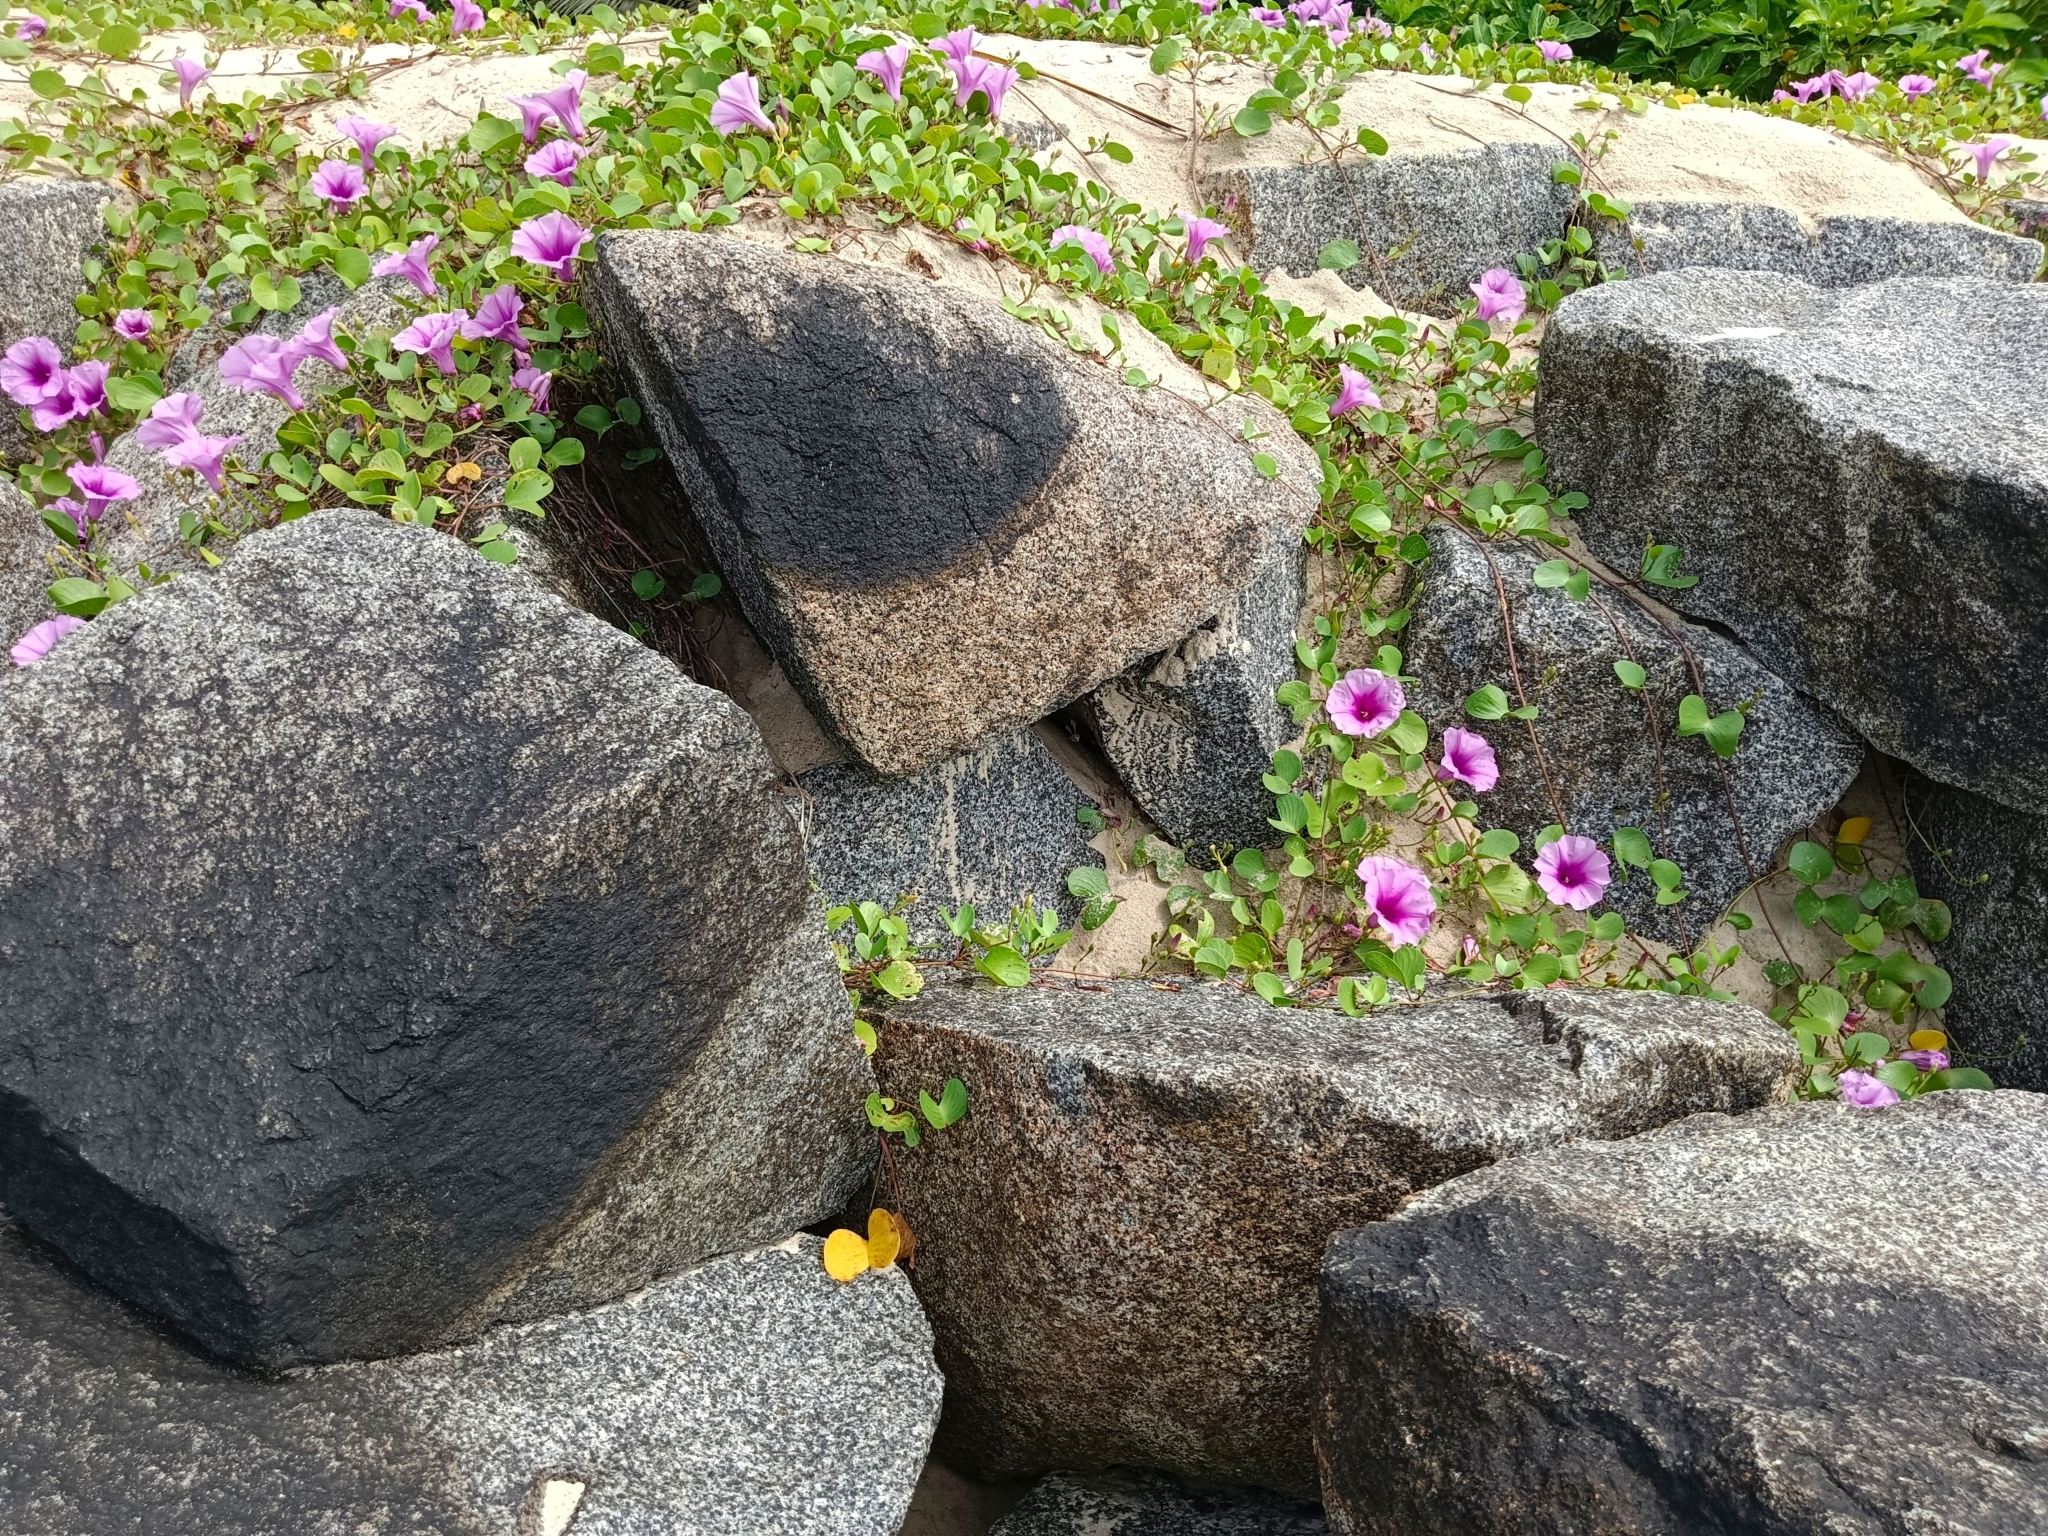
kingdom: Plantae
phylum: Tracheophyta
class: Magnoliopsida
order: Solanales
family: Convolvulaceae
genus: Ipomoea
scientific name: Ipomoea pes-caprae
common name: Beach morning glory
